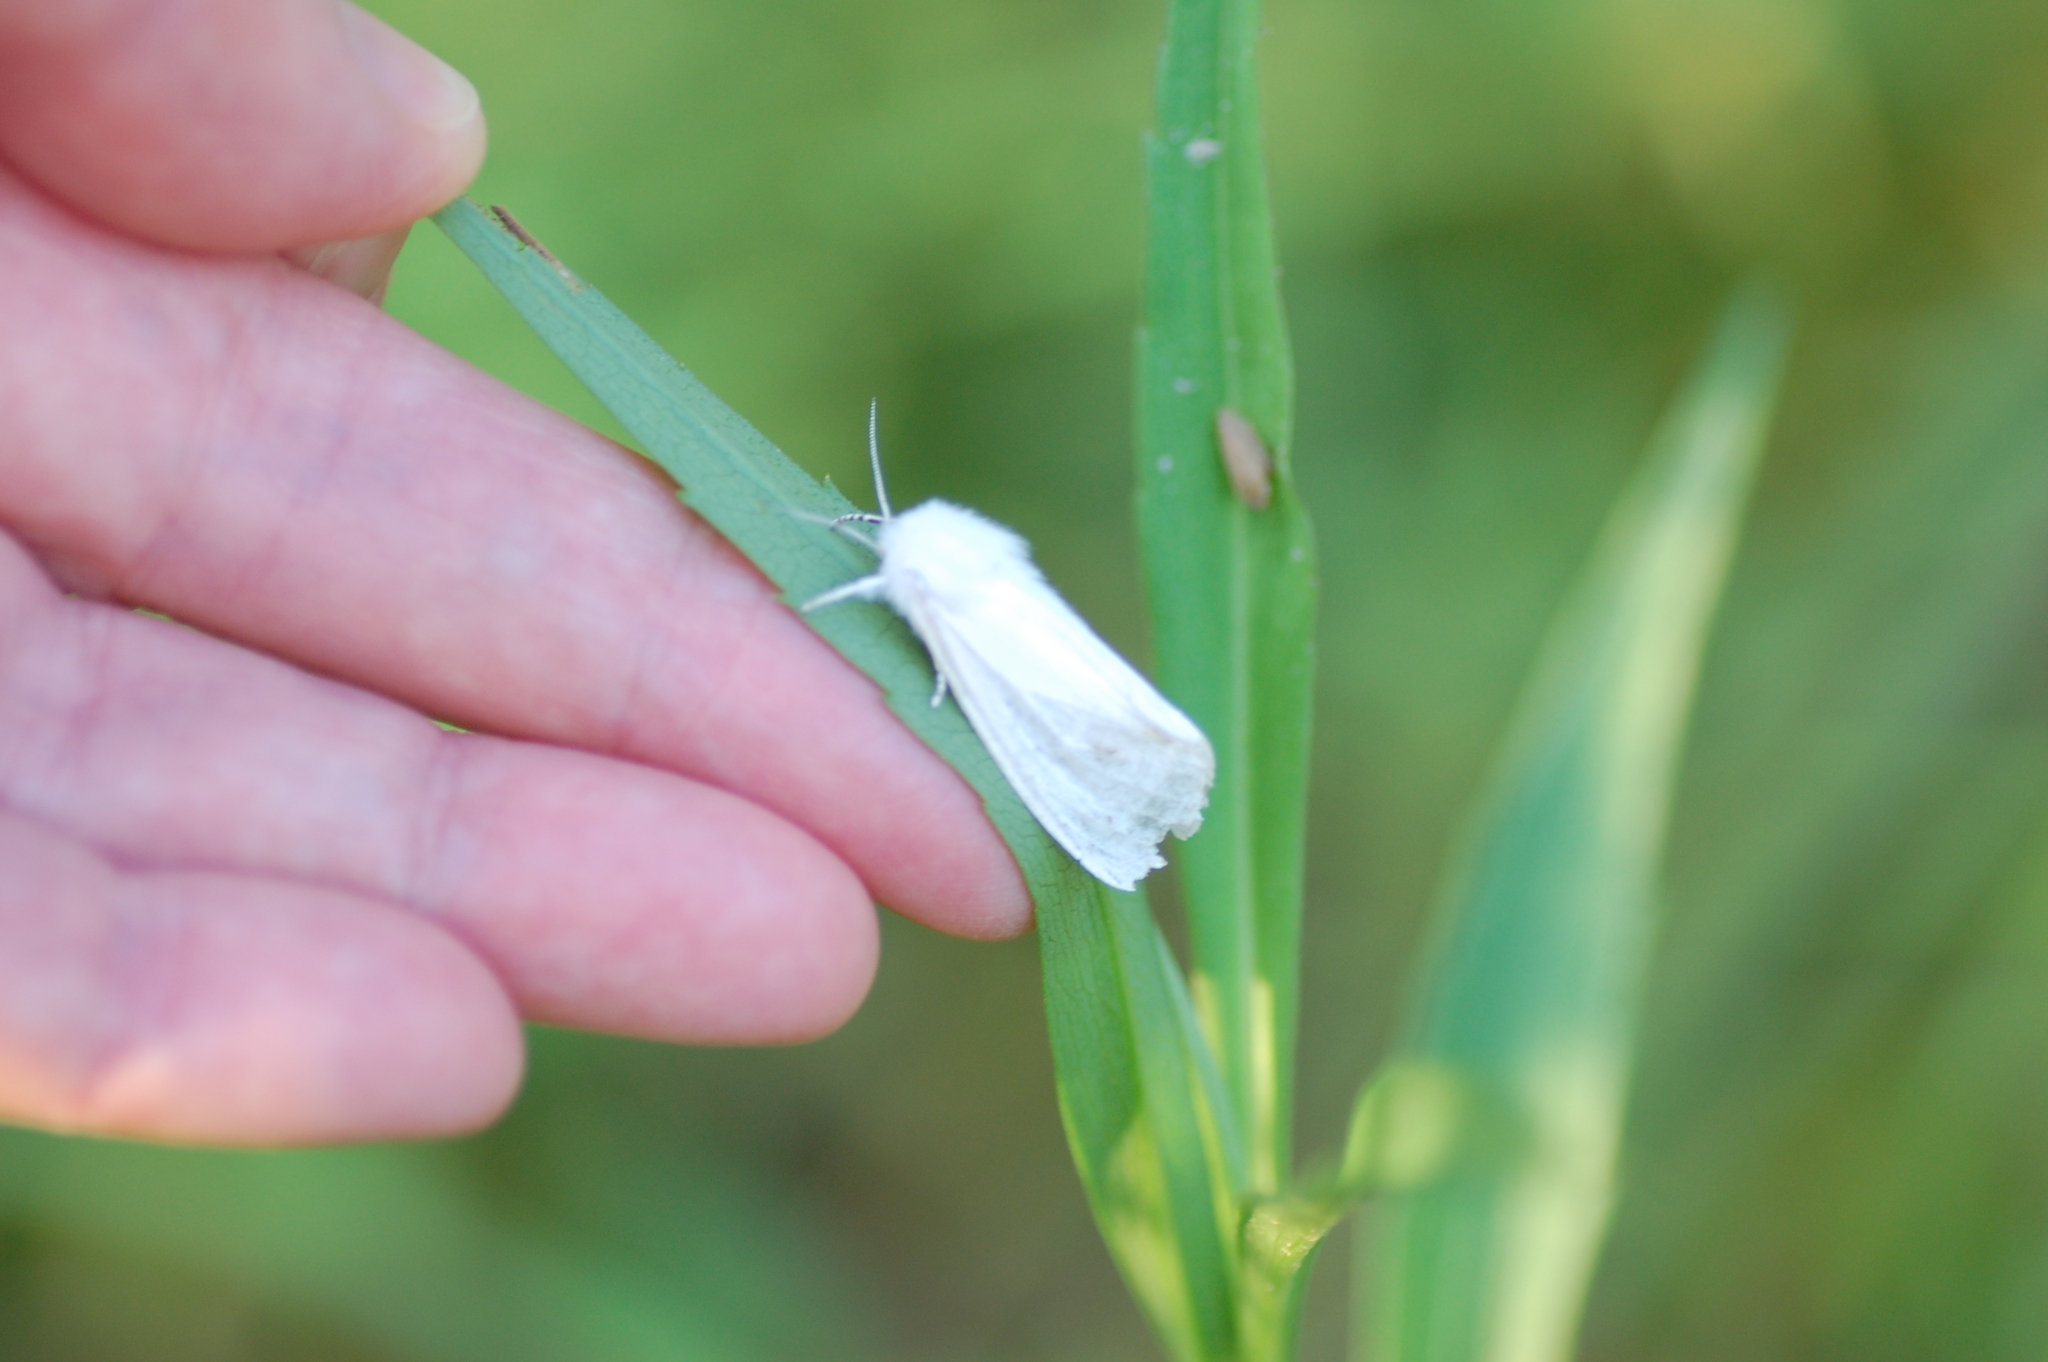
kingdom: Animalia
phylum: Arthropoda
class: Insecta
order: Lepidoptera
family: Erebidae
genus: Hyphantria
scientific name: Hyphantria cunea
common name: American white moth
